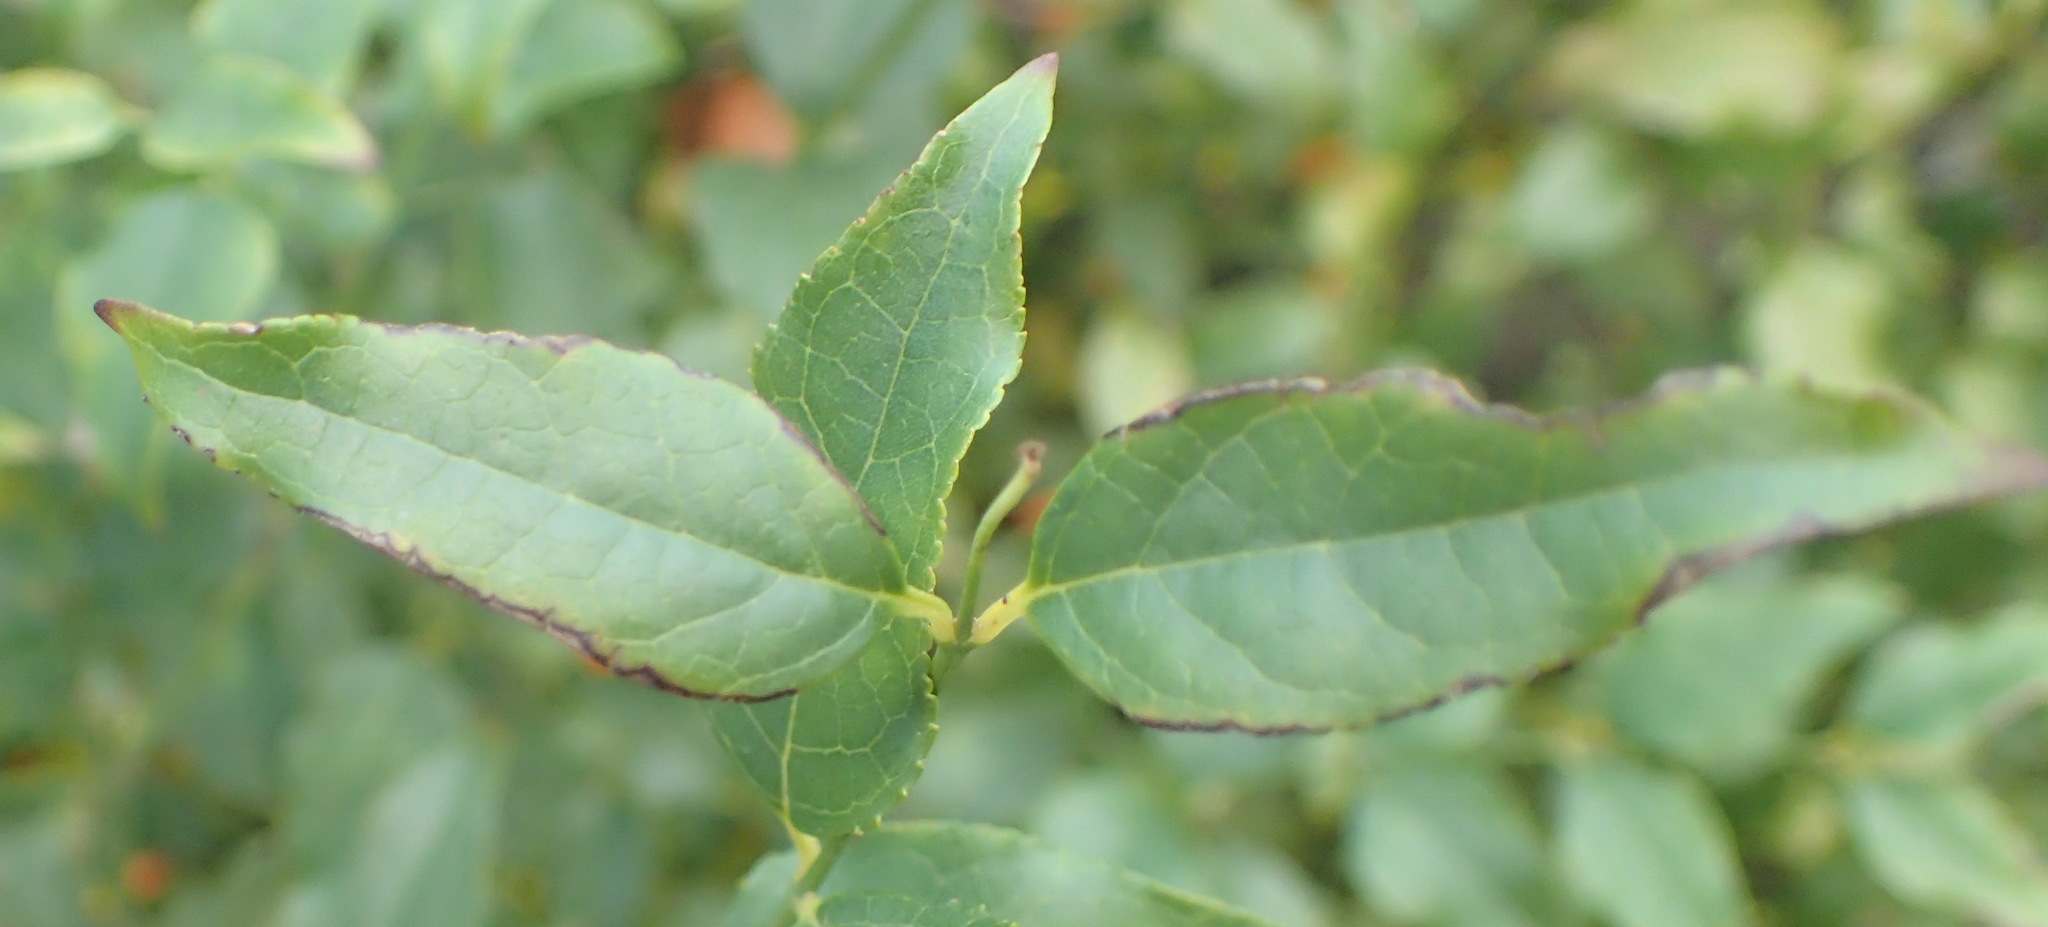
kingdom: Plantae
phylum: Tracheophyta
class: Magnoliopsida
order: Lamiales
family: Stilbaceae
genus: Halleria
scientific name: Halleria lucida
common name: Tree fuschia
